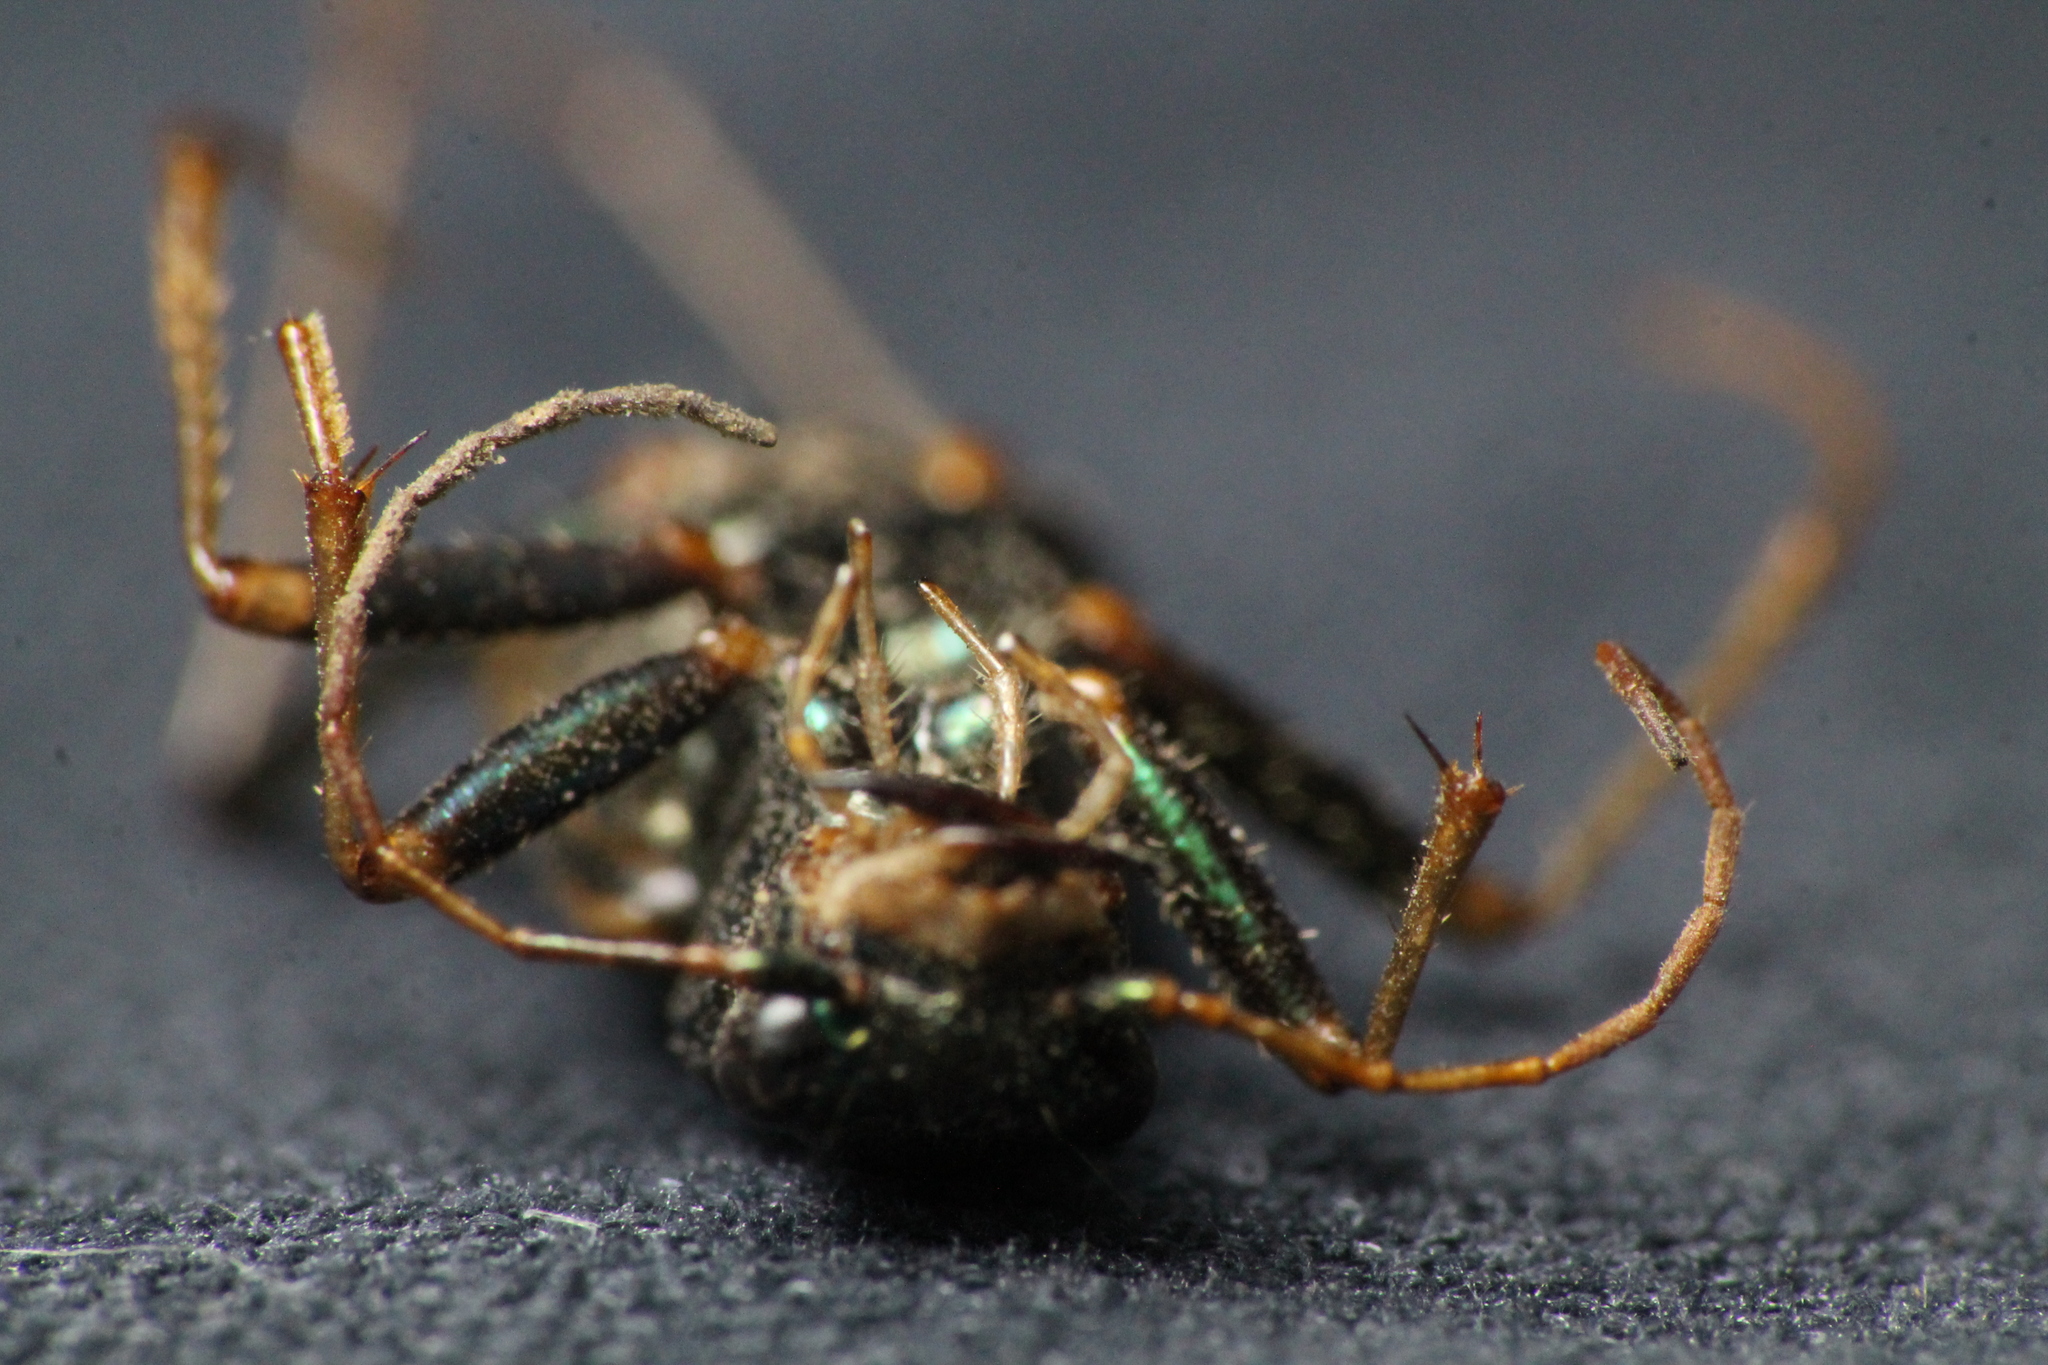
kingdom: Animalia
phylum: Arthropoda
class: Insecta
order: Coleoptera
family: Carabidae
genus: Neocicindela
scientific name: Neocicindela spilleri
